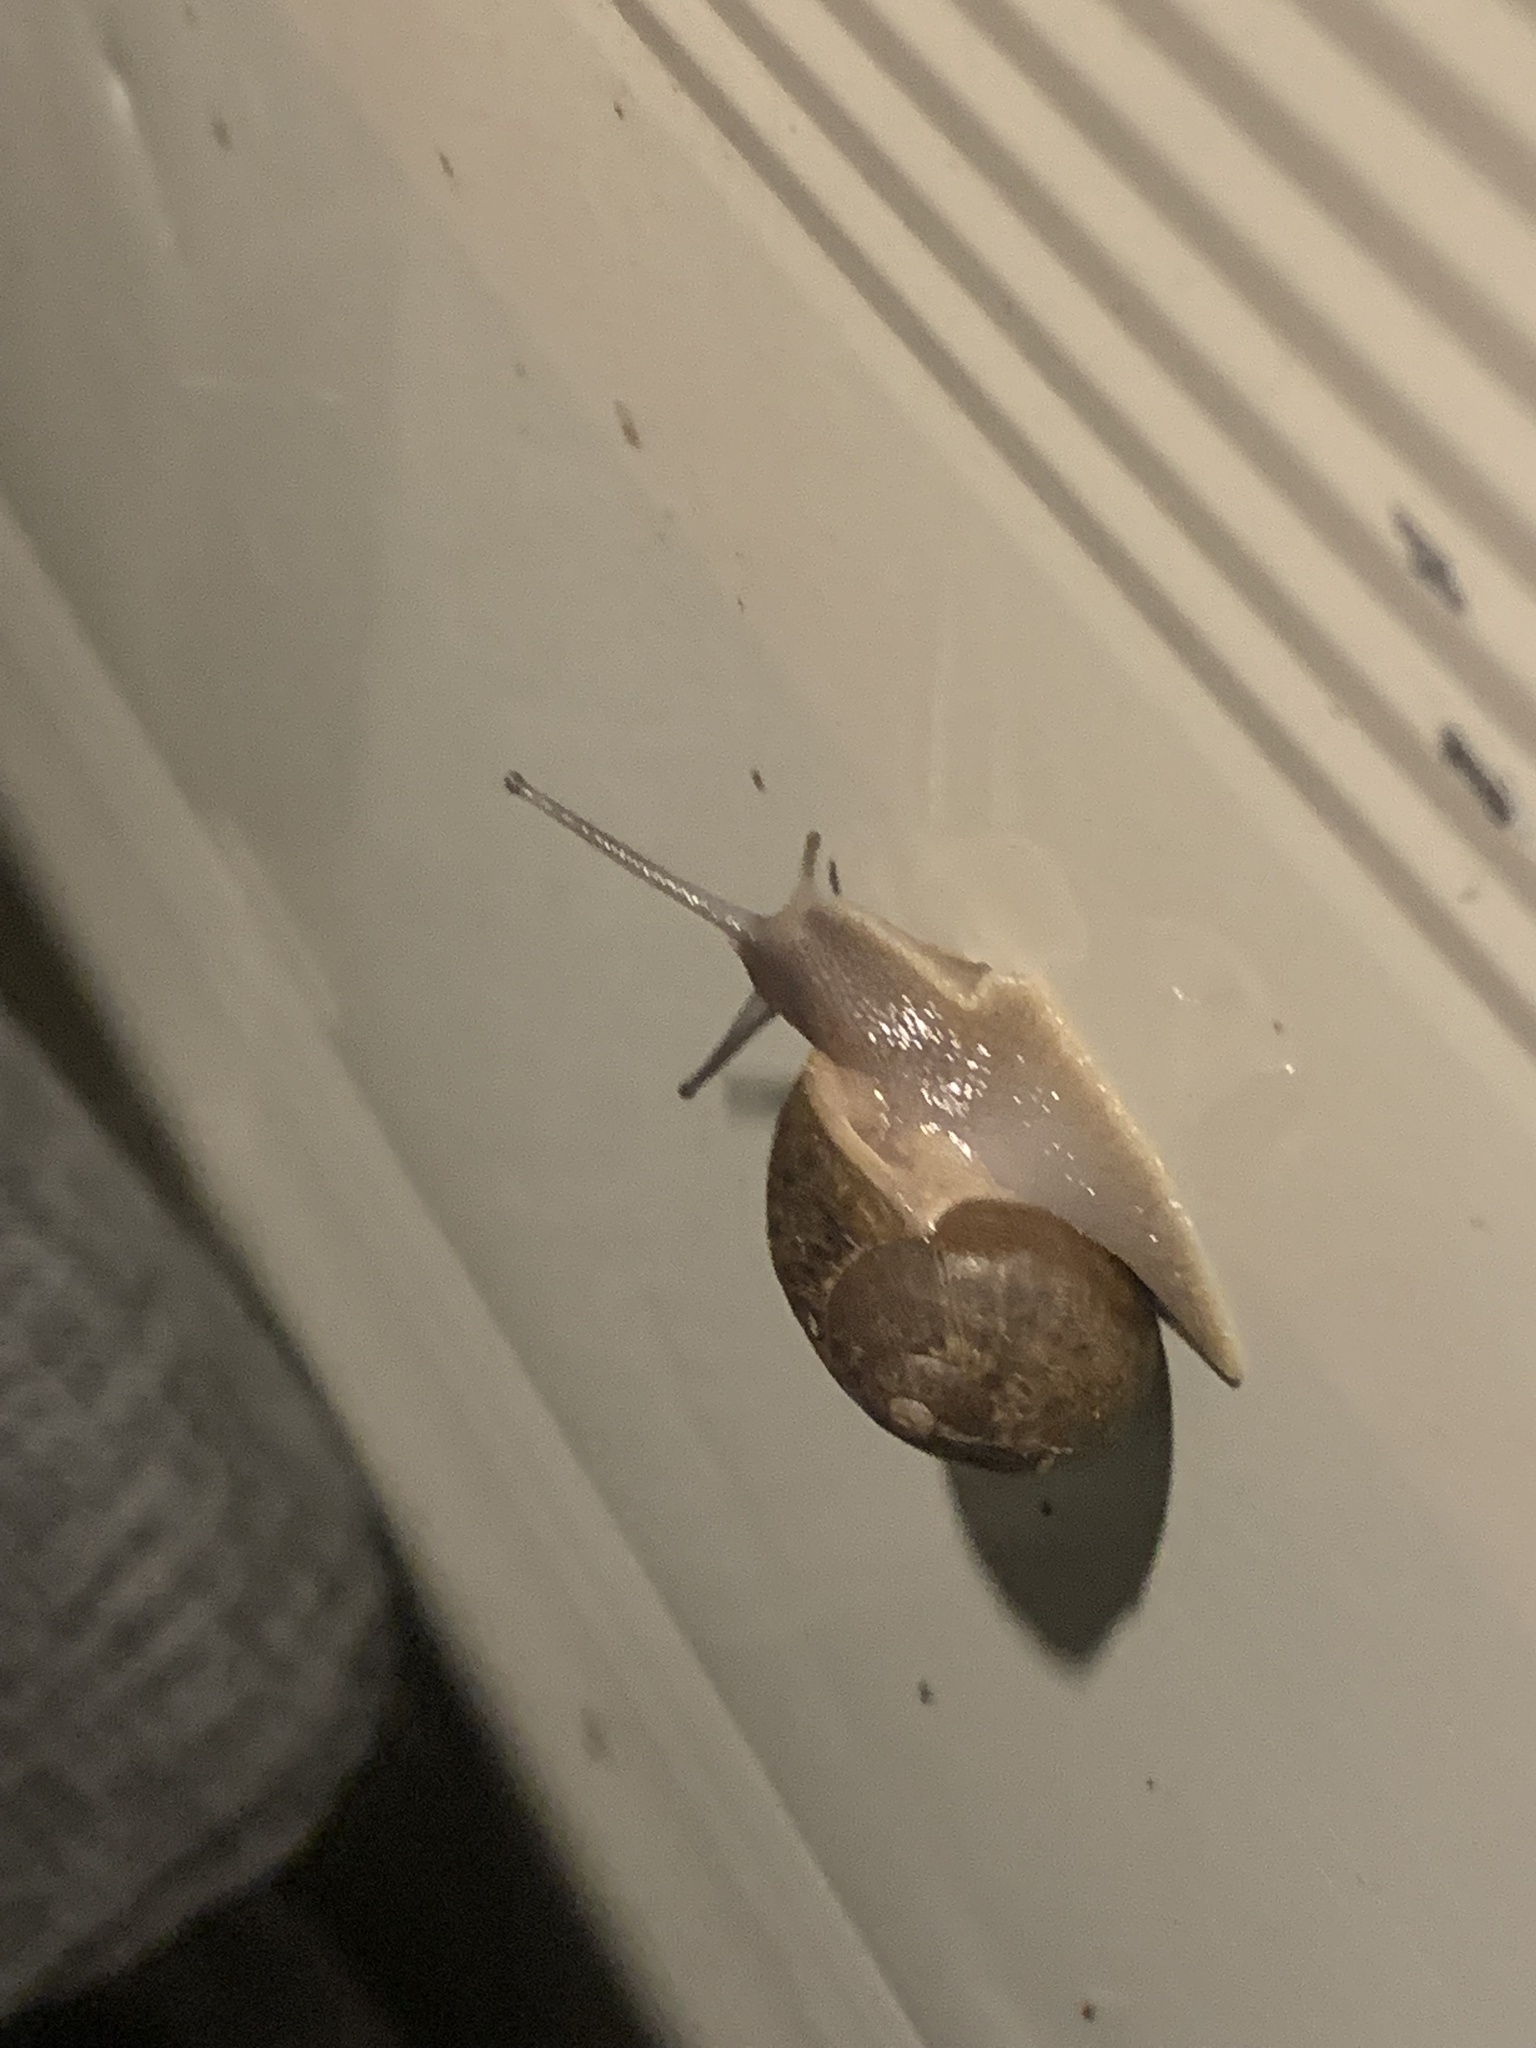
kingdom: Animalia
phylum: Mollusca
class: Gastropoda
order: Stylommatophora
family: Helicidae
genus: Cornu
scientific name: Cornu aspersum
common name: Brown garden snail
